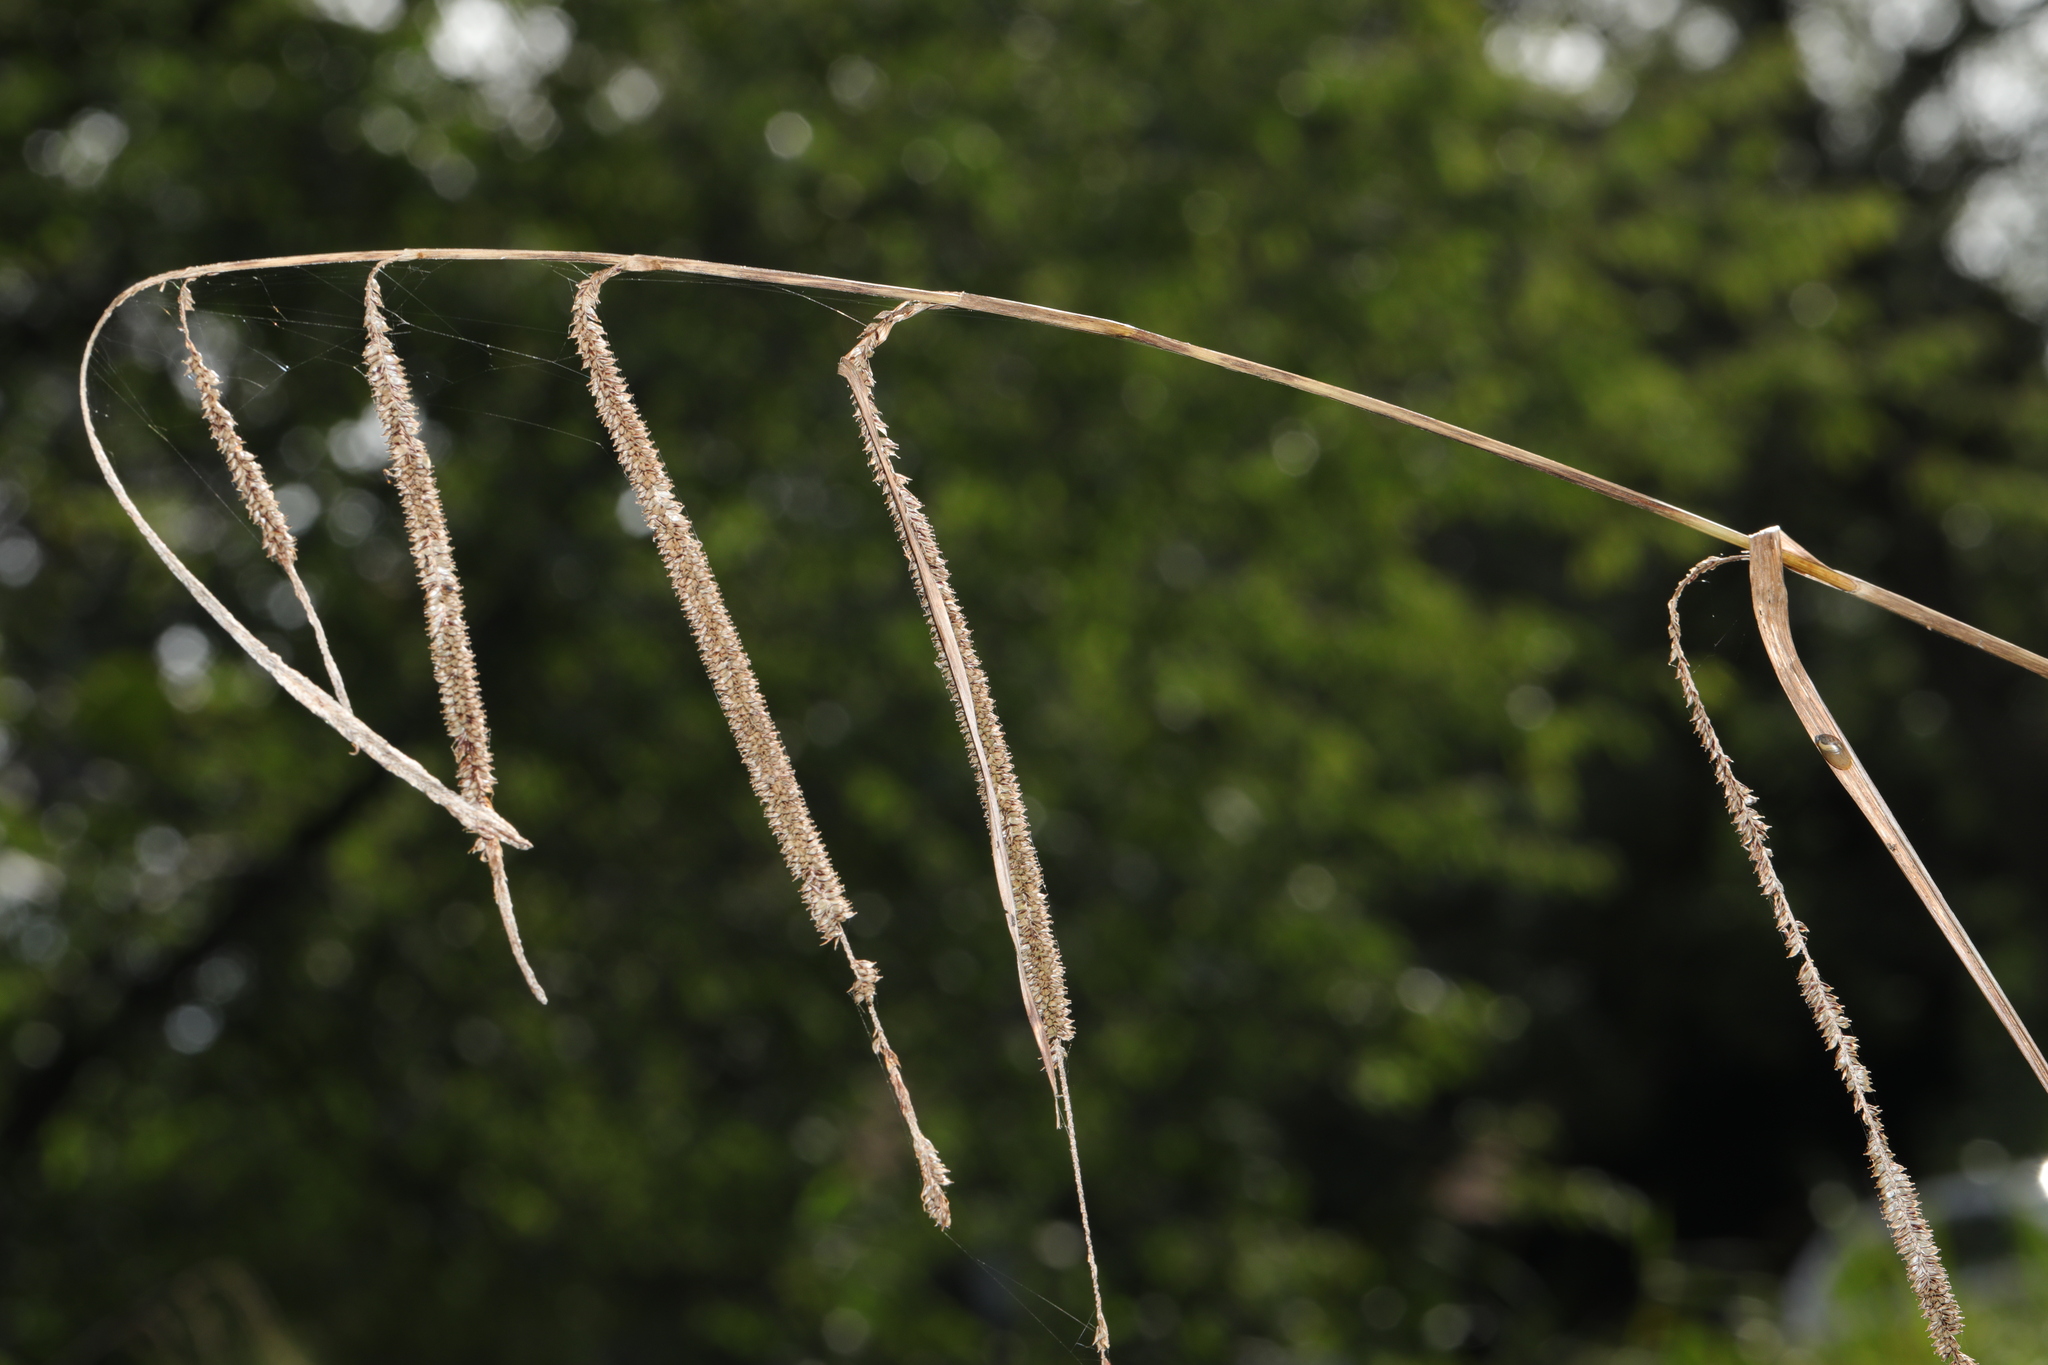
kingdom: Plantae
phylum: Tracheophyta
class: Liliopsida
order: Poales
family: Cyperaceae
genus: Carex
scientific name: Carex pendula
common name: Pendulous sedge
